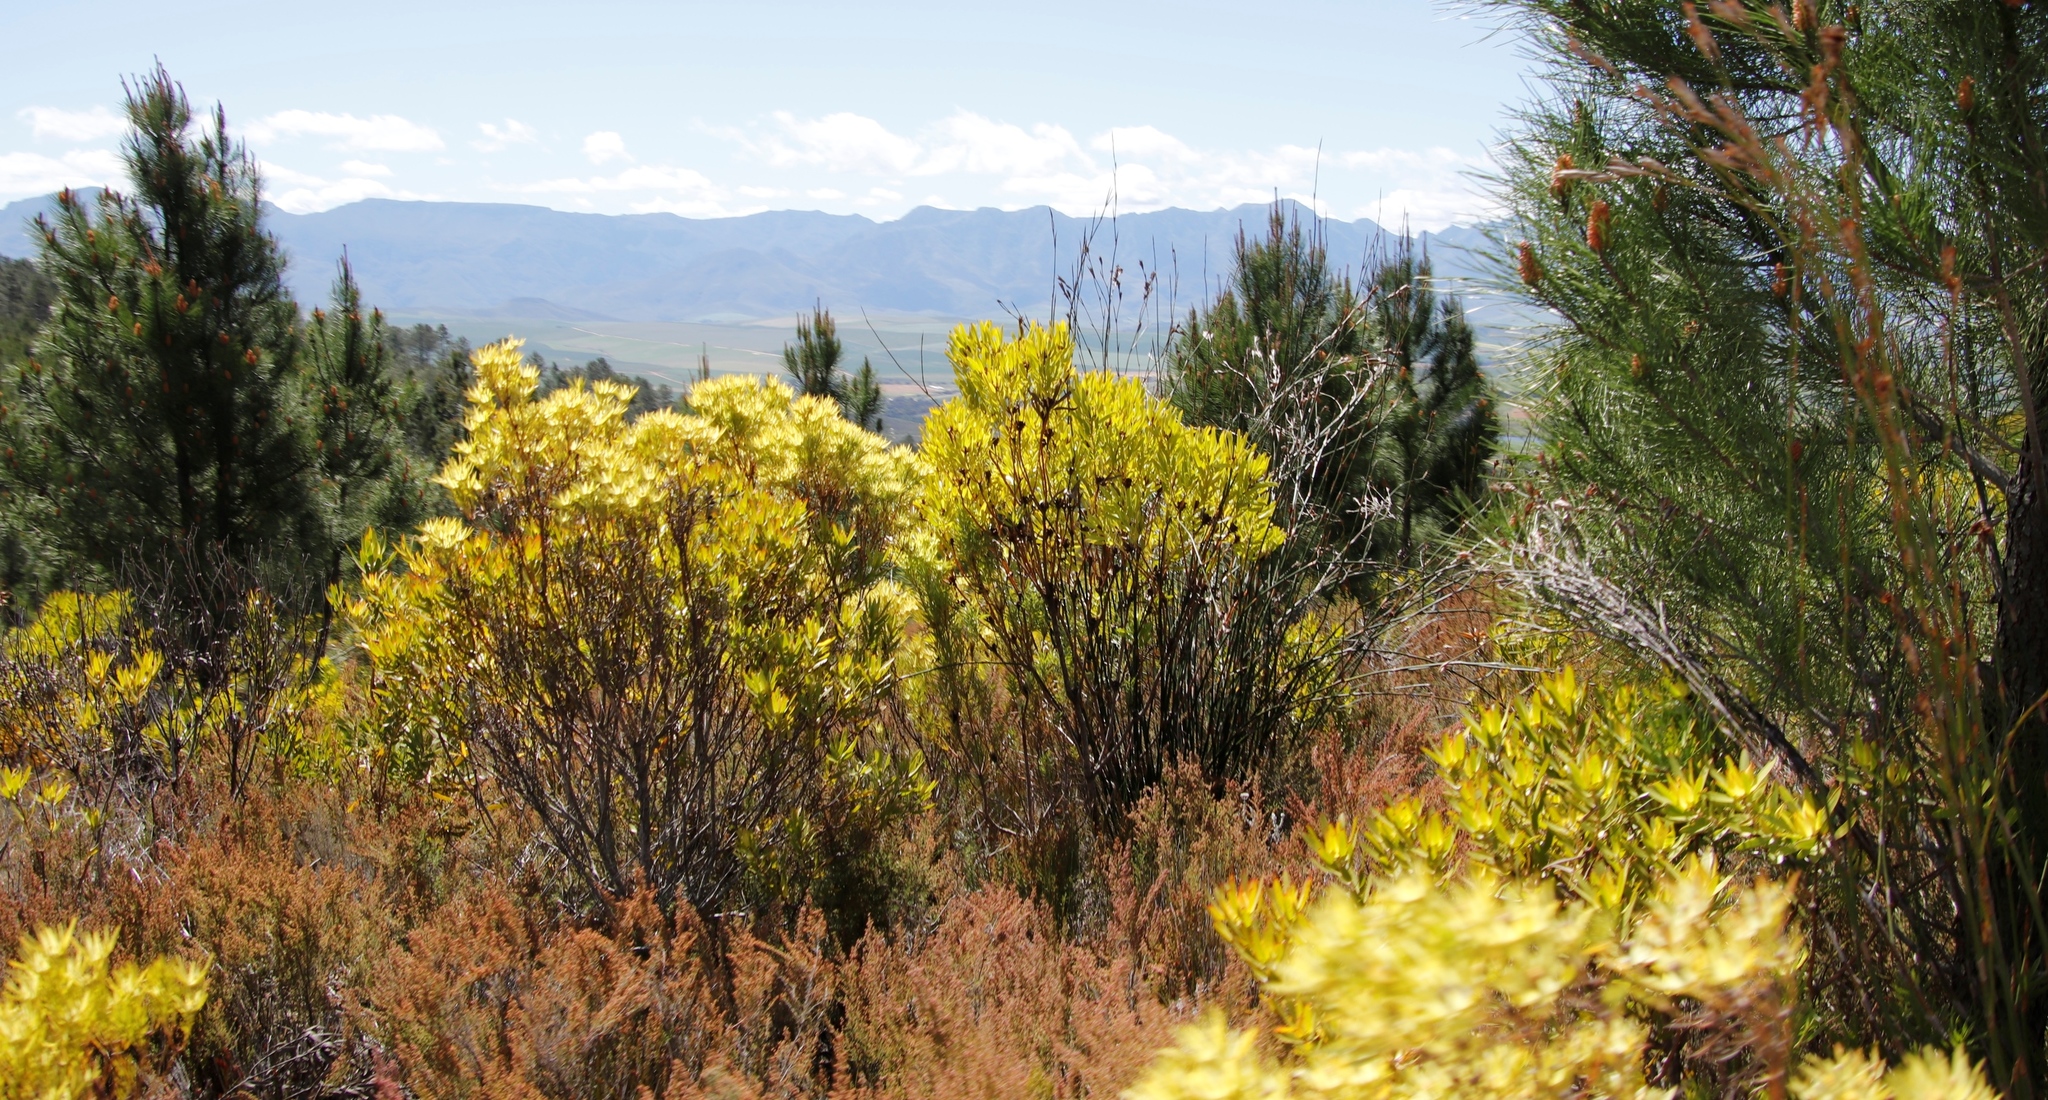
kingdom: Plantae
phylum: Tracheophyta
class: Magnoliopsida
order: Proteales
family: Proteaceae
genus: Leucadendron
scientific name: Leucadendron xanthoconus
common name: Sickle-leaf conebush
